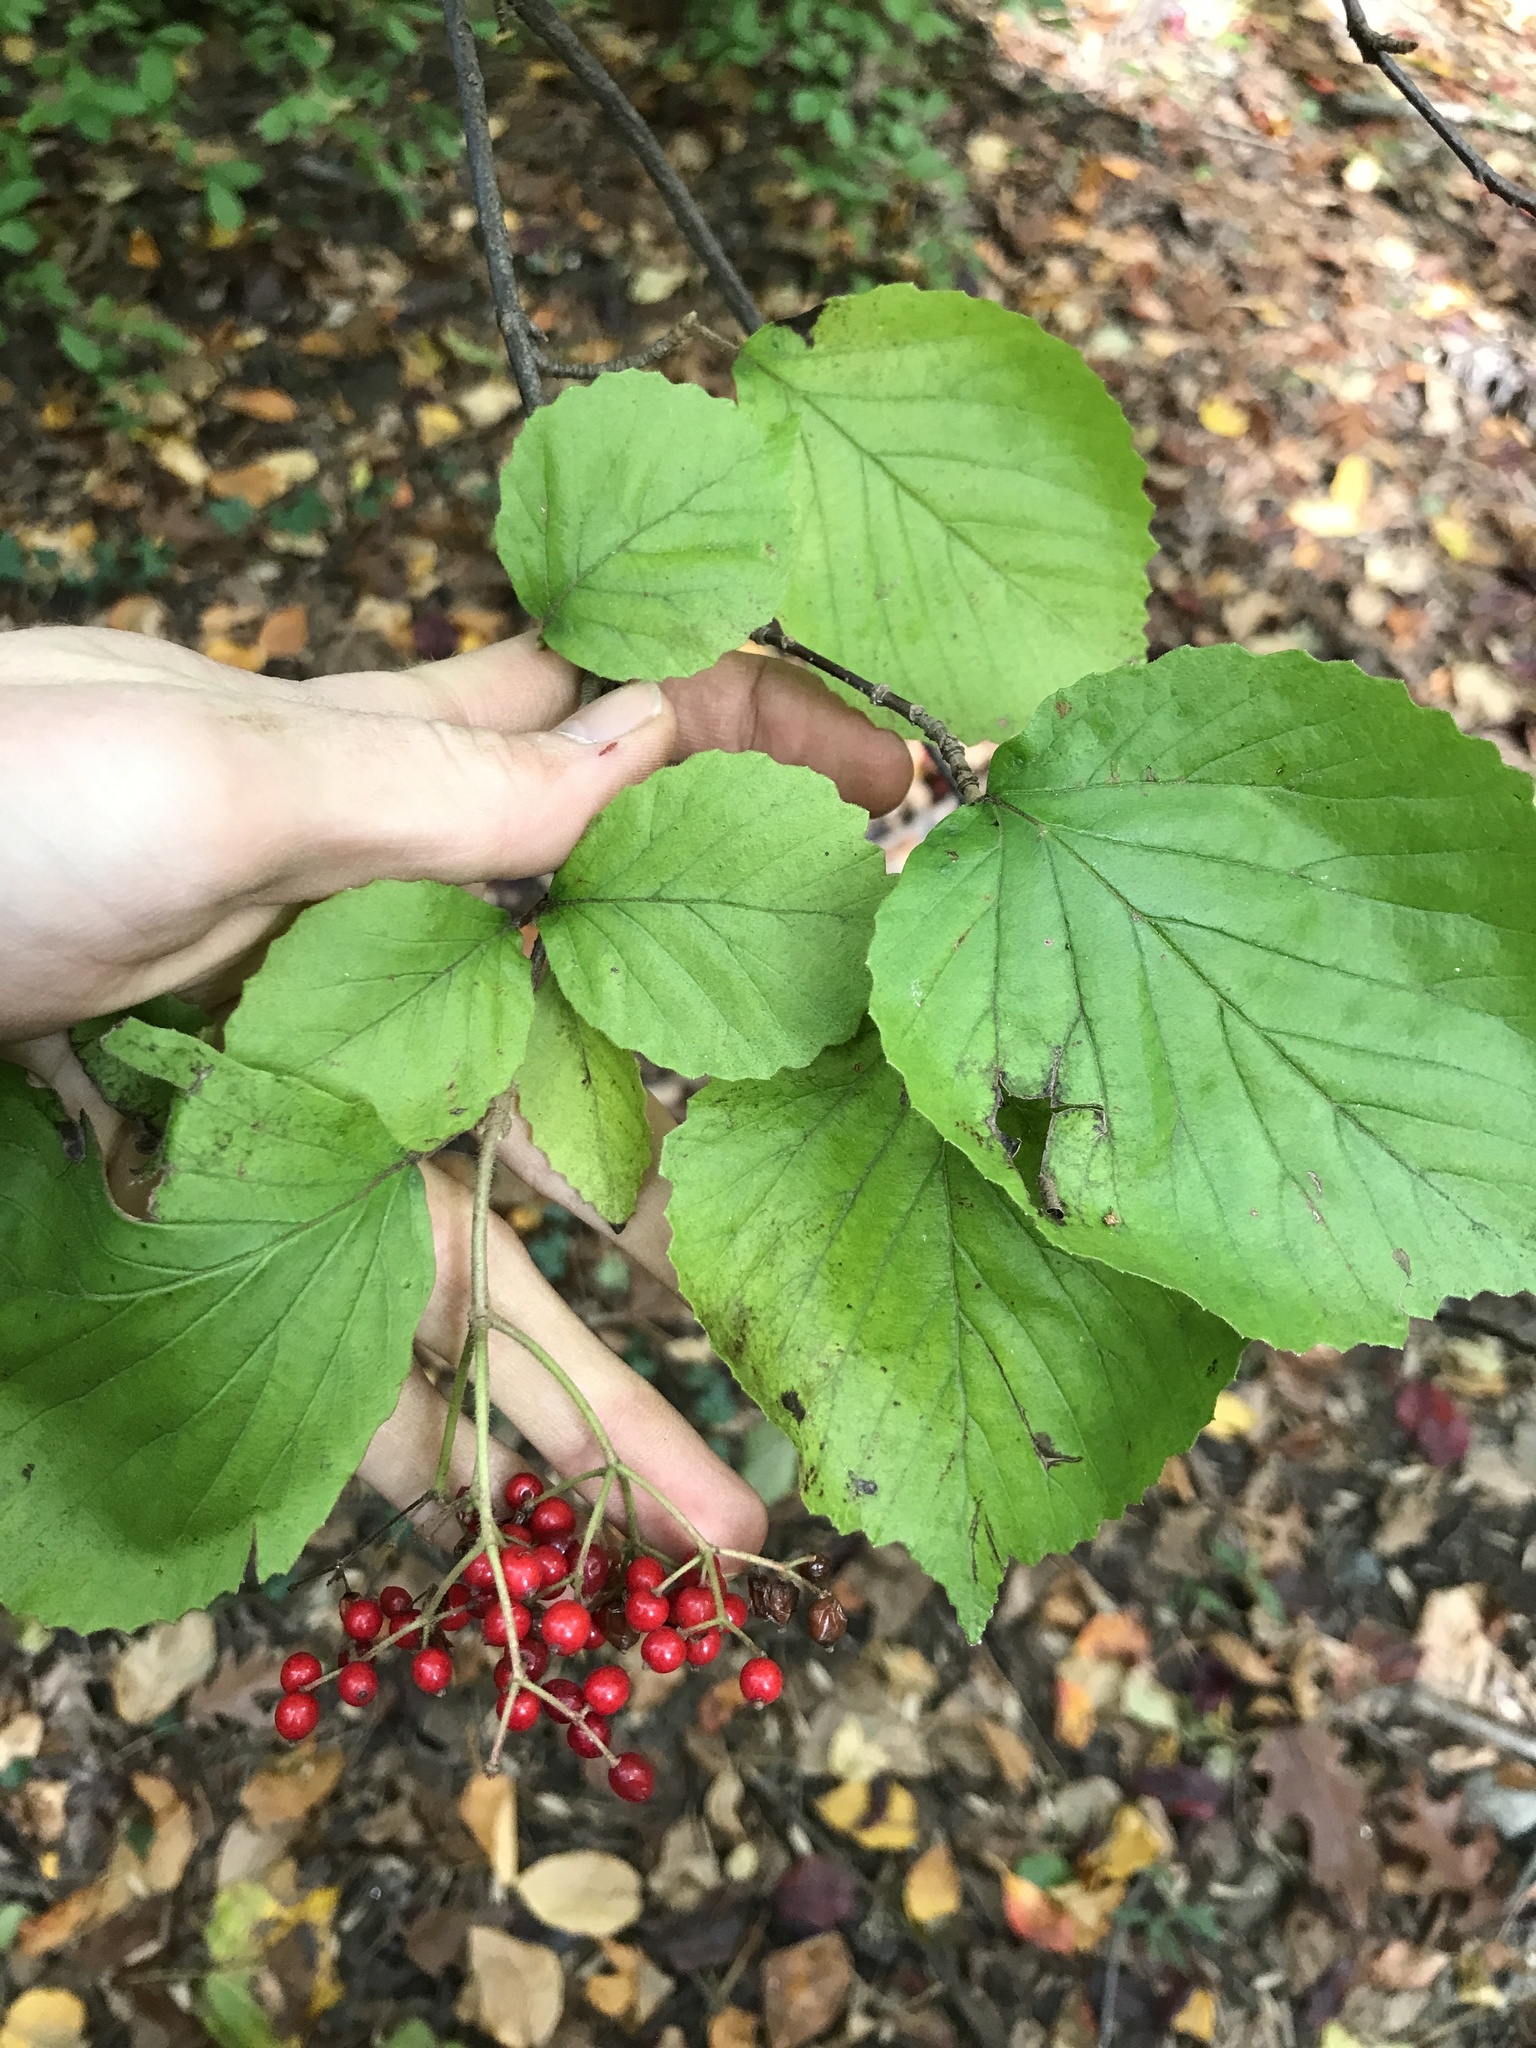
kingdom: Plantae
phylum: Tracheophyta
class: Magnoliopsida
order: Dipsacales
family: Viburnaceae
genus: Viburnum
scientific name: Viburnum dilatatum
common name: Linden arrowwood
